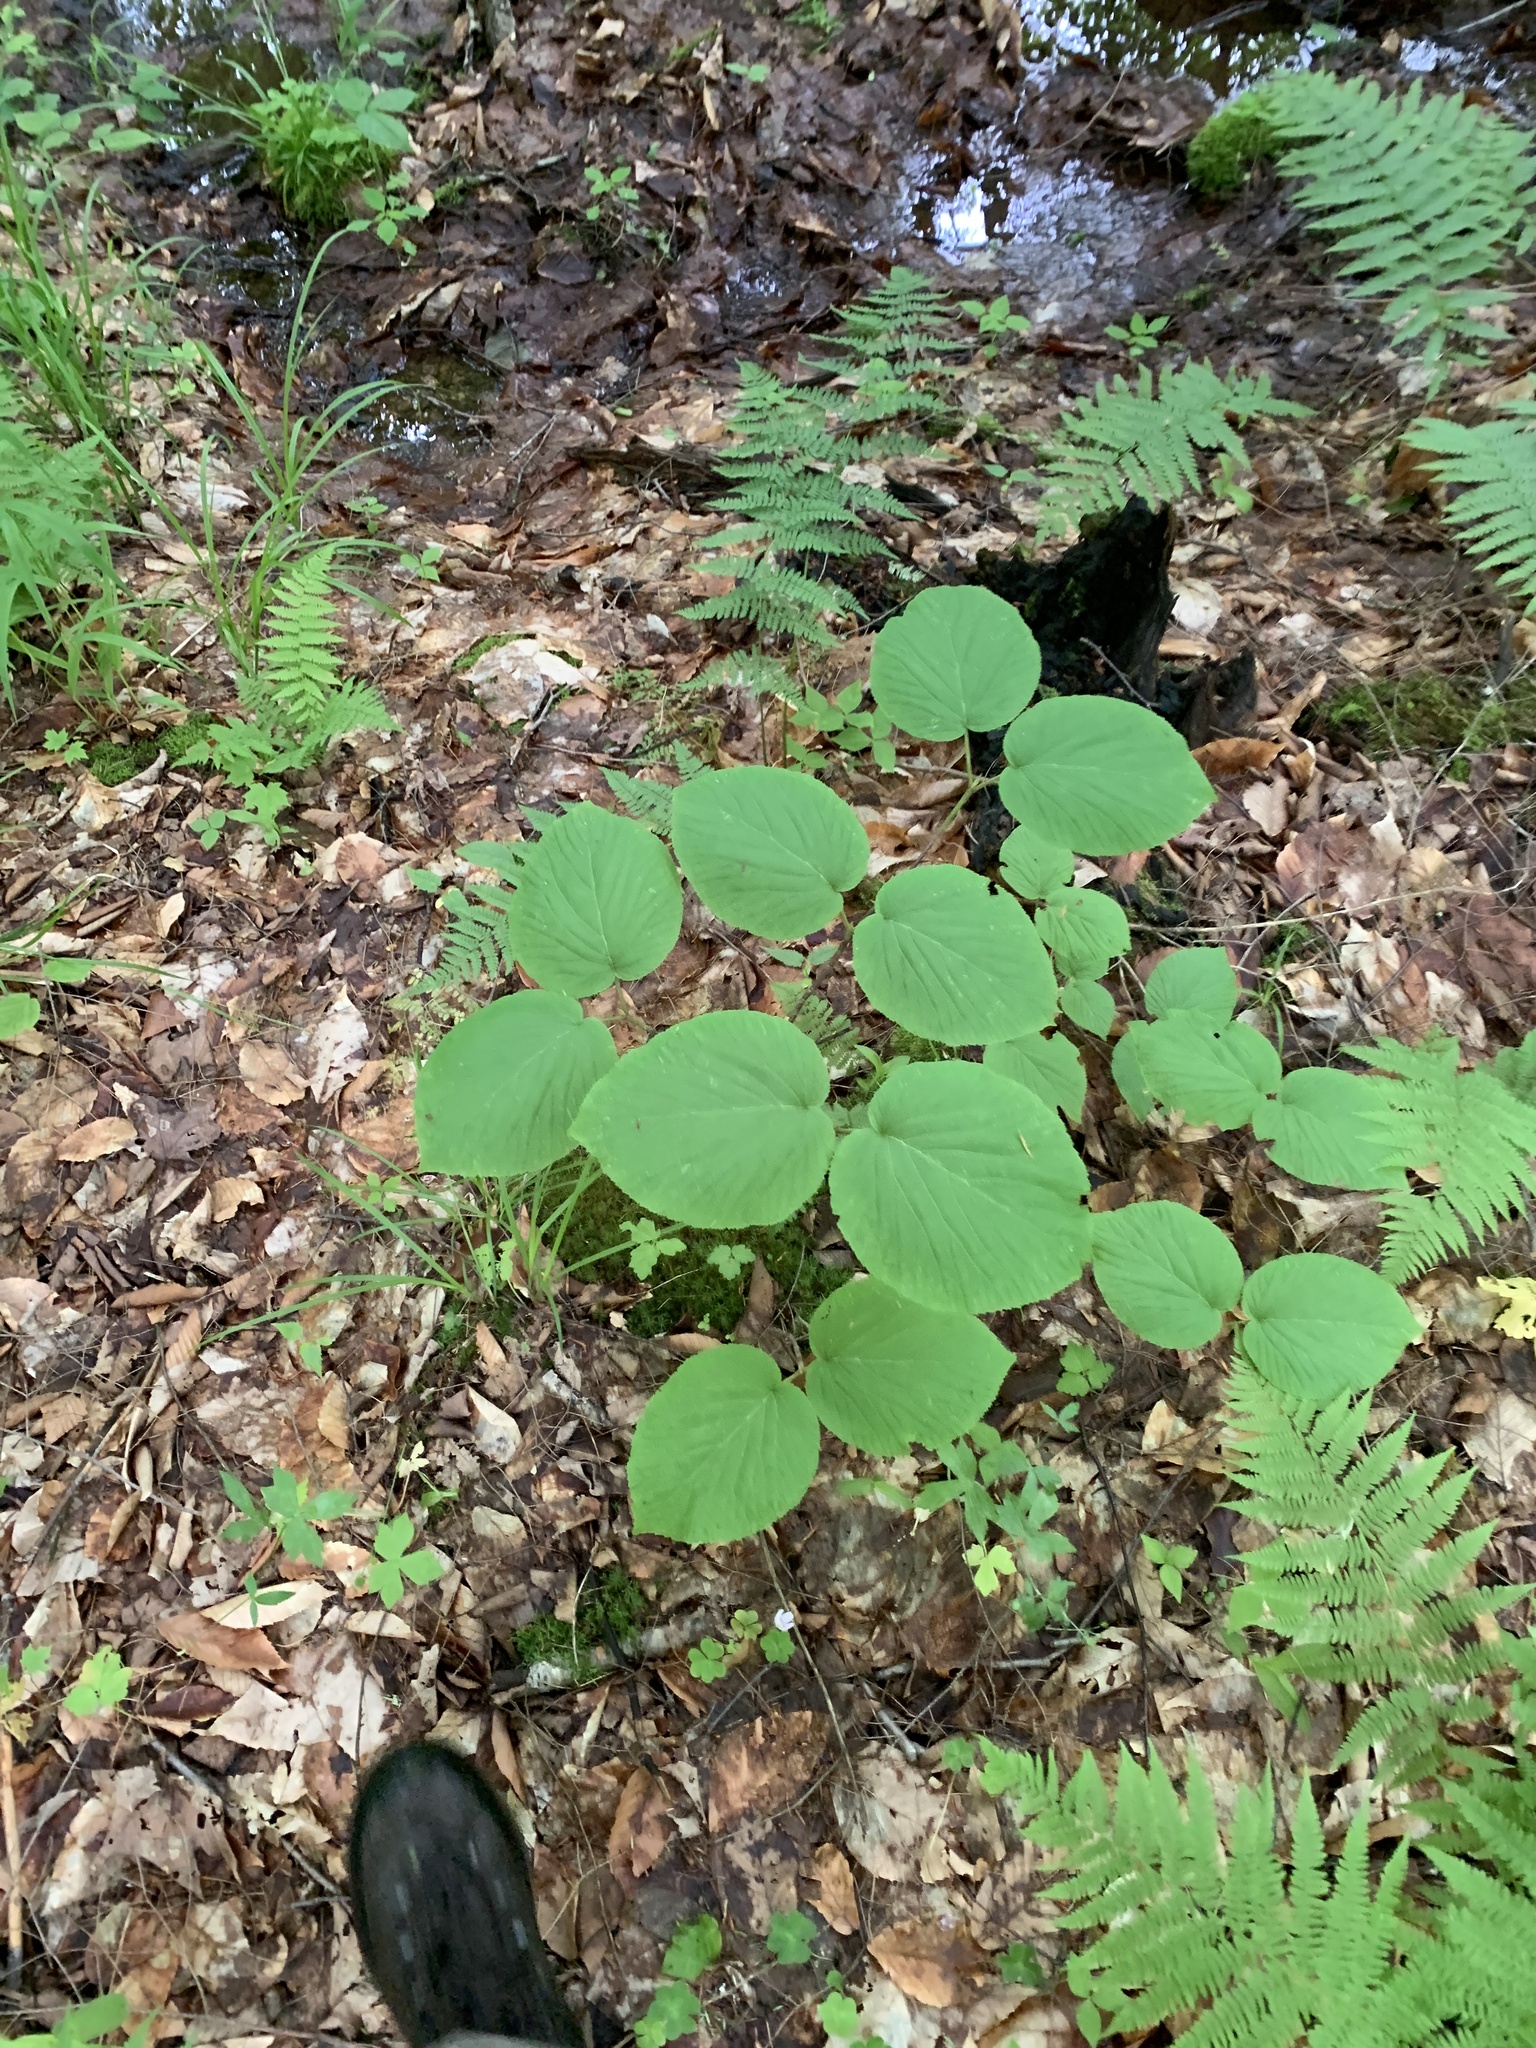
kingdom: Plantae
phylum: Tracheophyta
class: Magnoliopsida
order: Dipsacales
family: Viburnaceae
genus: Viburnum
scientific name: Viburnum lantanoides
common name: Hobblebush
